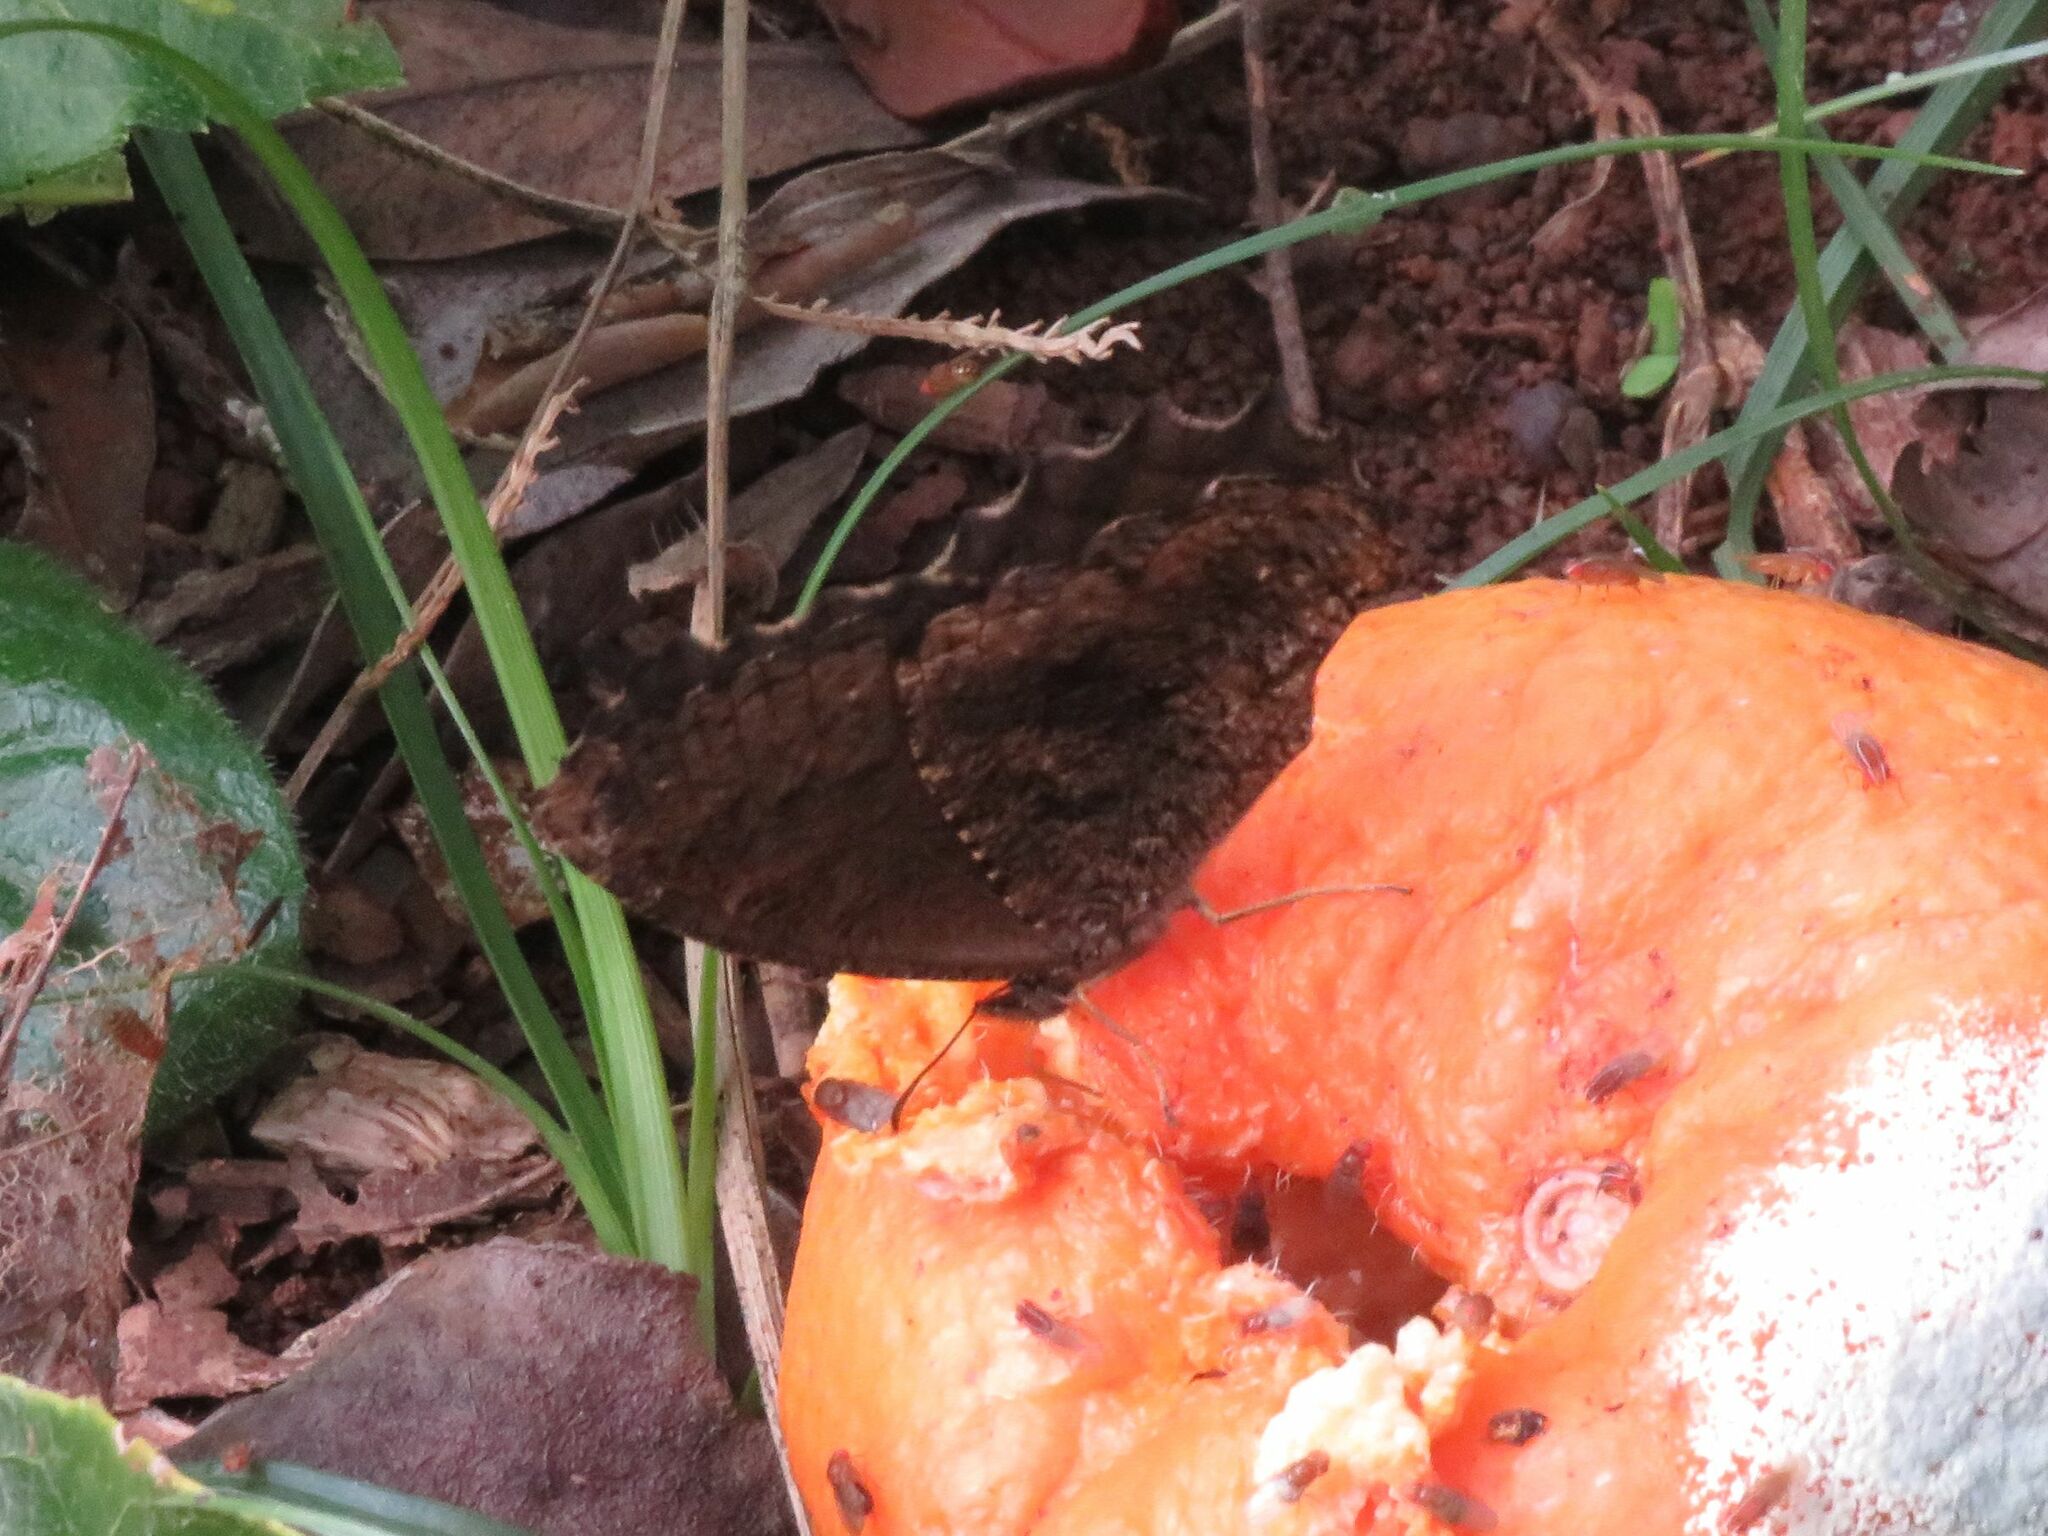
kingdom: Animalia
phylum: Arthropoda
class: Insecta
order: Lepidoptera
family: Nymphalidae
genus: Praepedaliodes
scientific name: Praepedaliodes phanias
